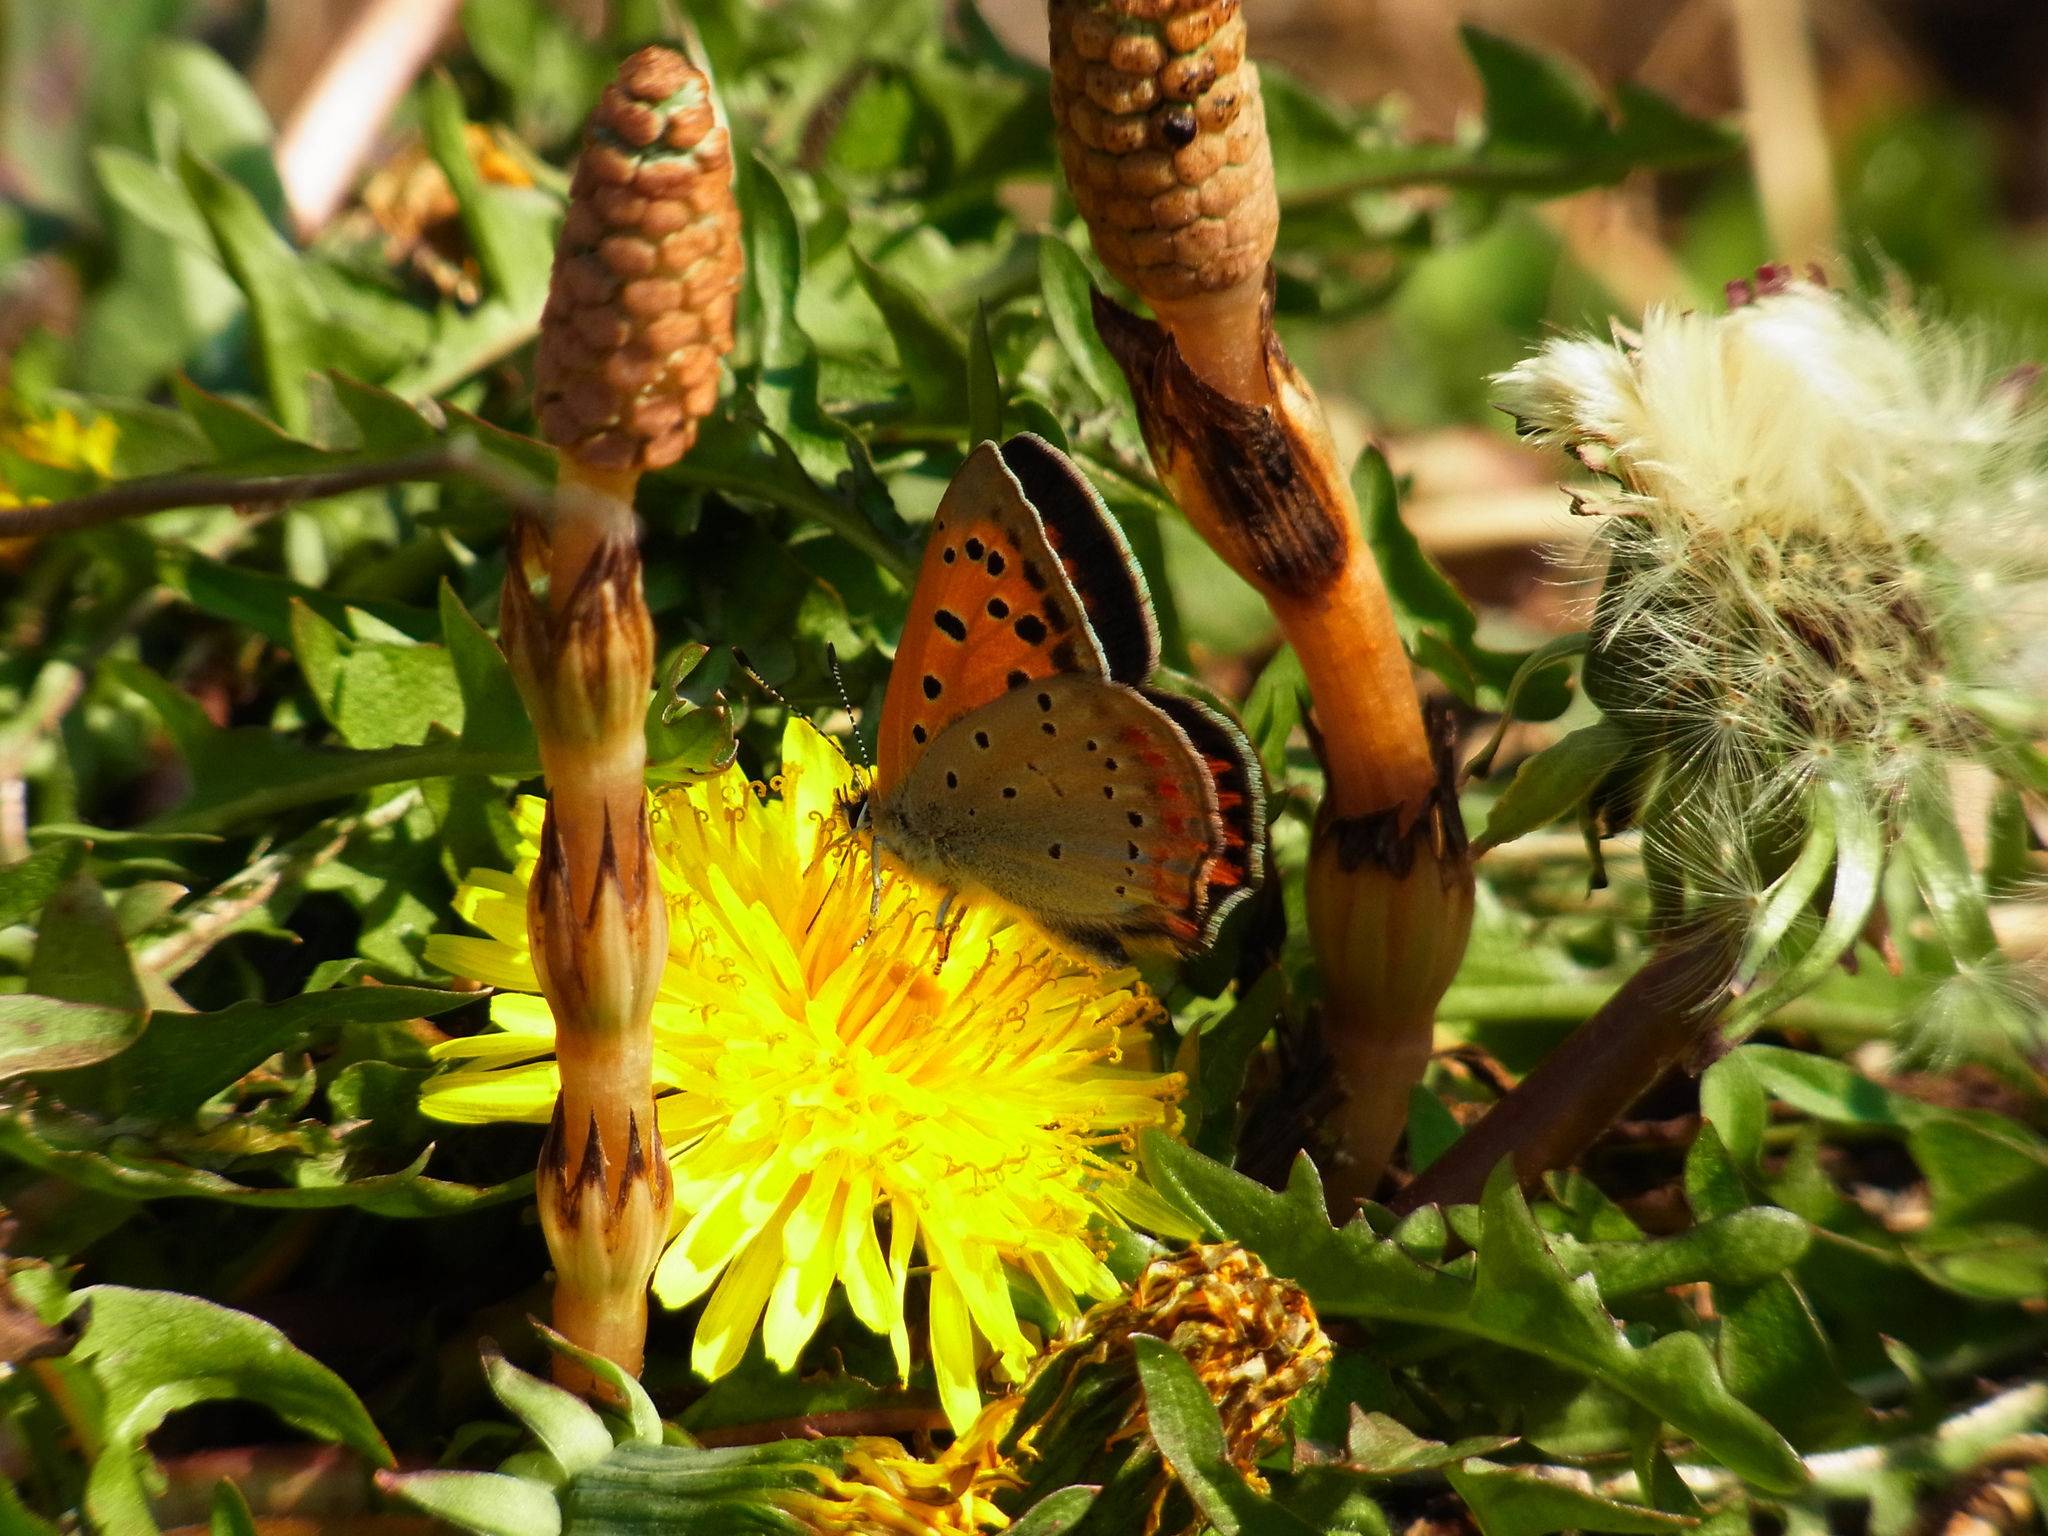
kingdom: Animalia
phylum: Arthropoda
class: Insecta
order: Lepidoptera
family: Lycaenidae
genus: Lycaena
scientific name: Lycaena phlaeas
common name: Small copper
